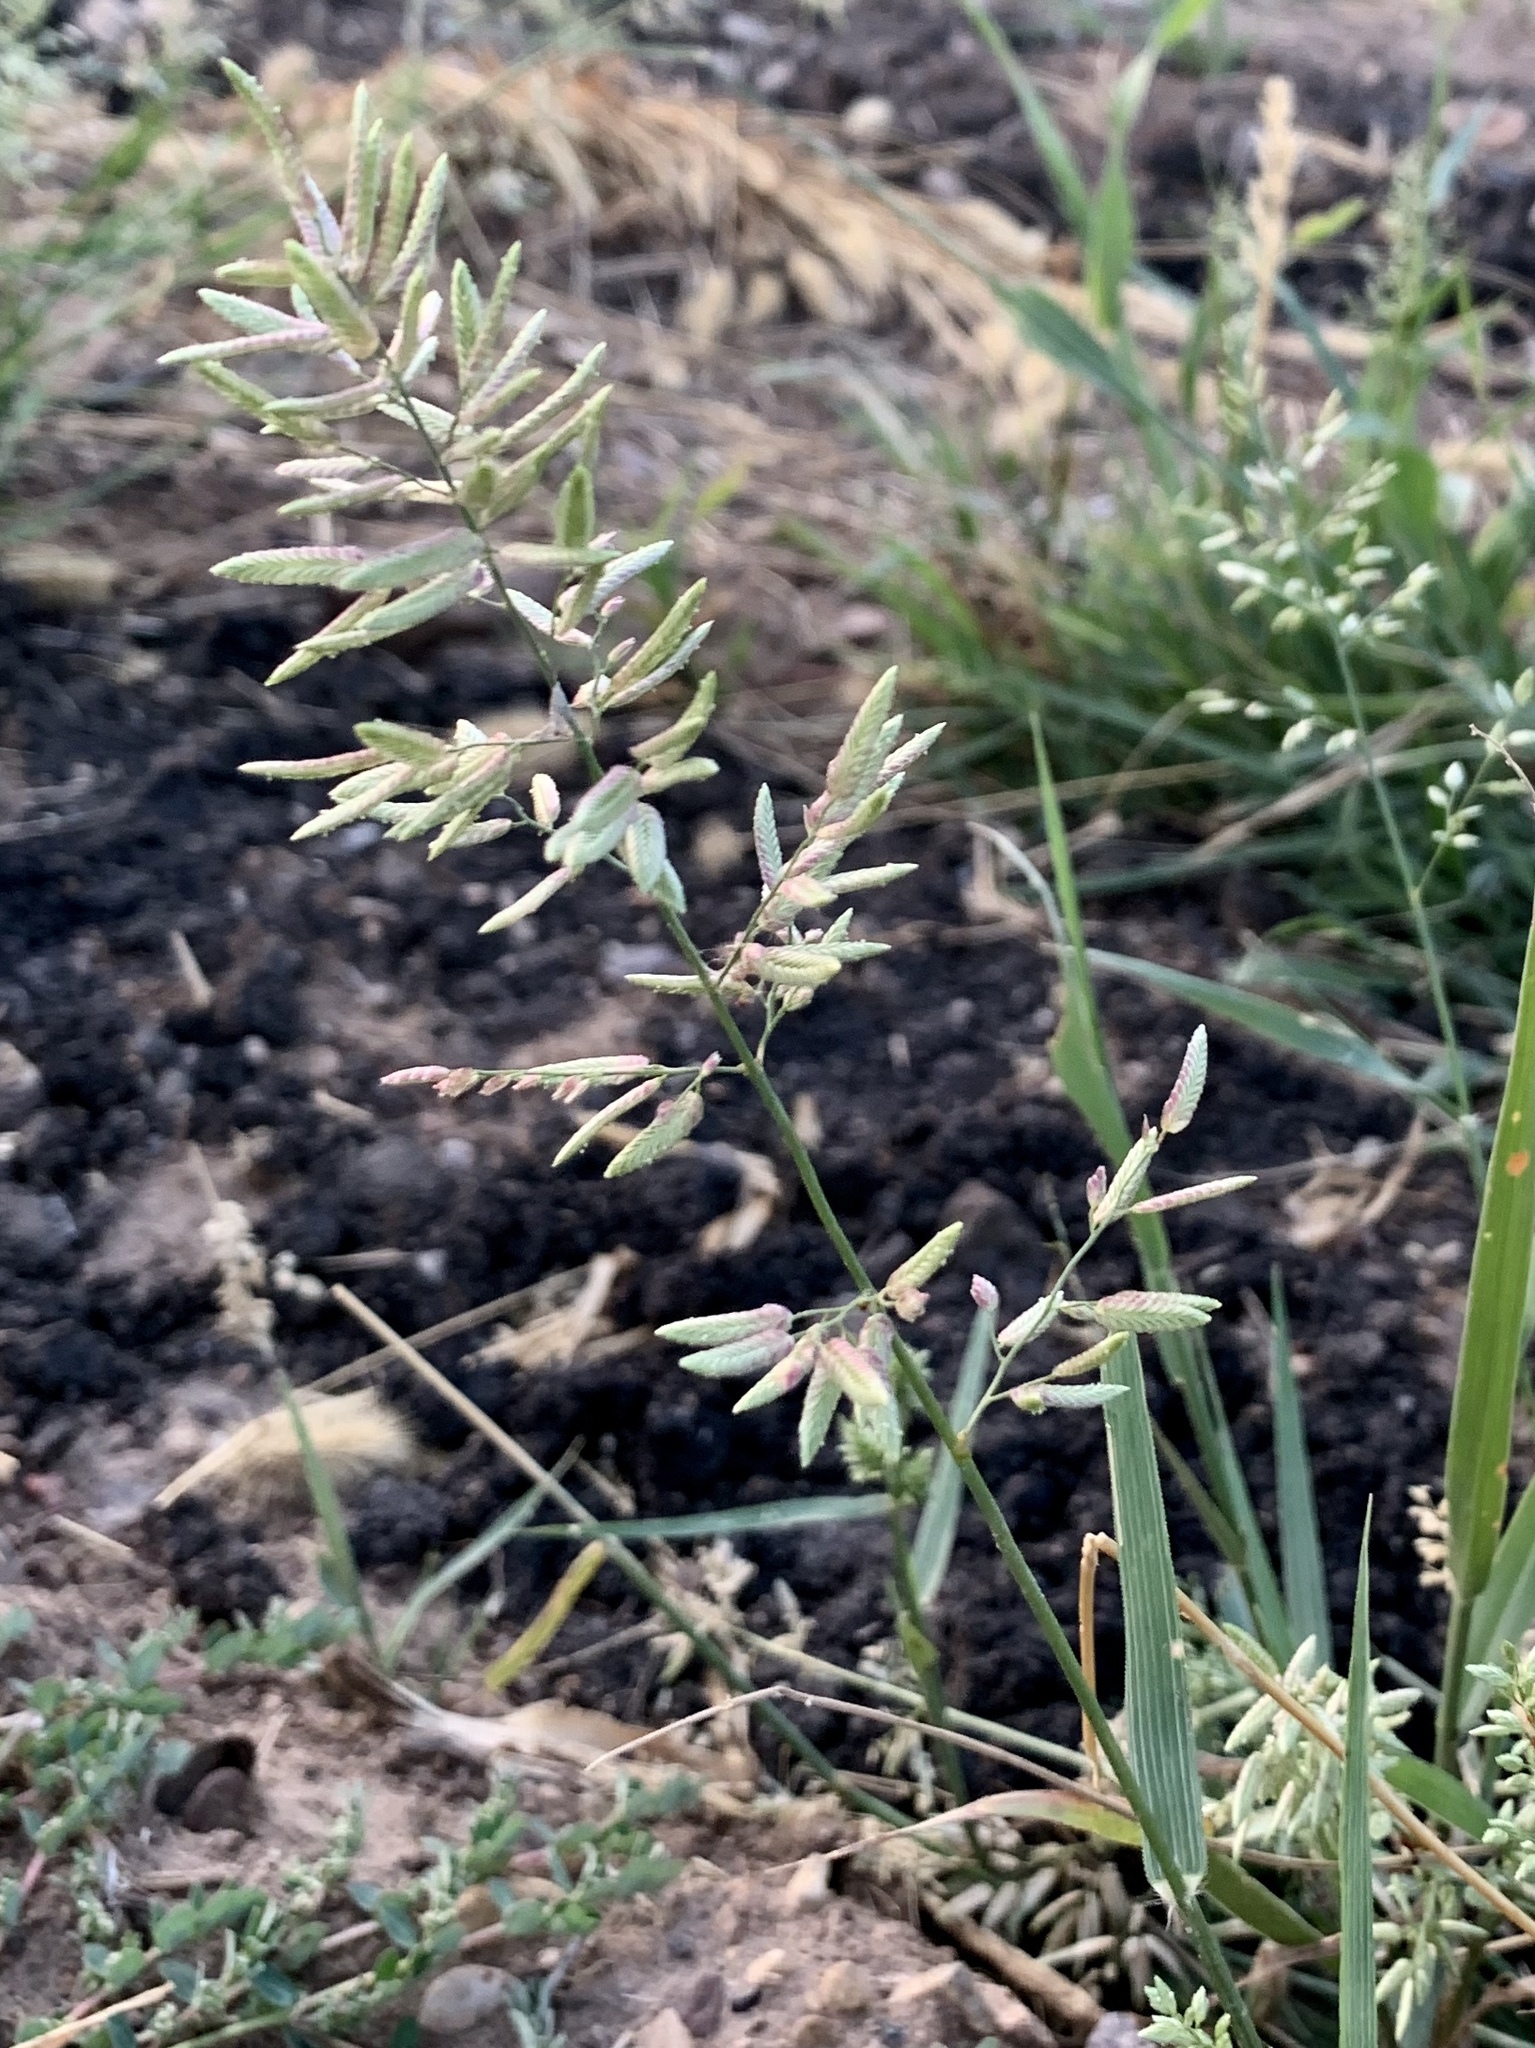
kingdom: Plantae
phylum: Tracheophyta
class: Liliopsida
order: Poales
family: Poaceae
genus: Eragrostis
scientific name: Eragrostis cilianensis
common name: Stinkgrass
